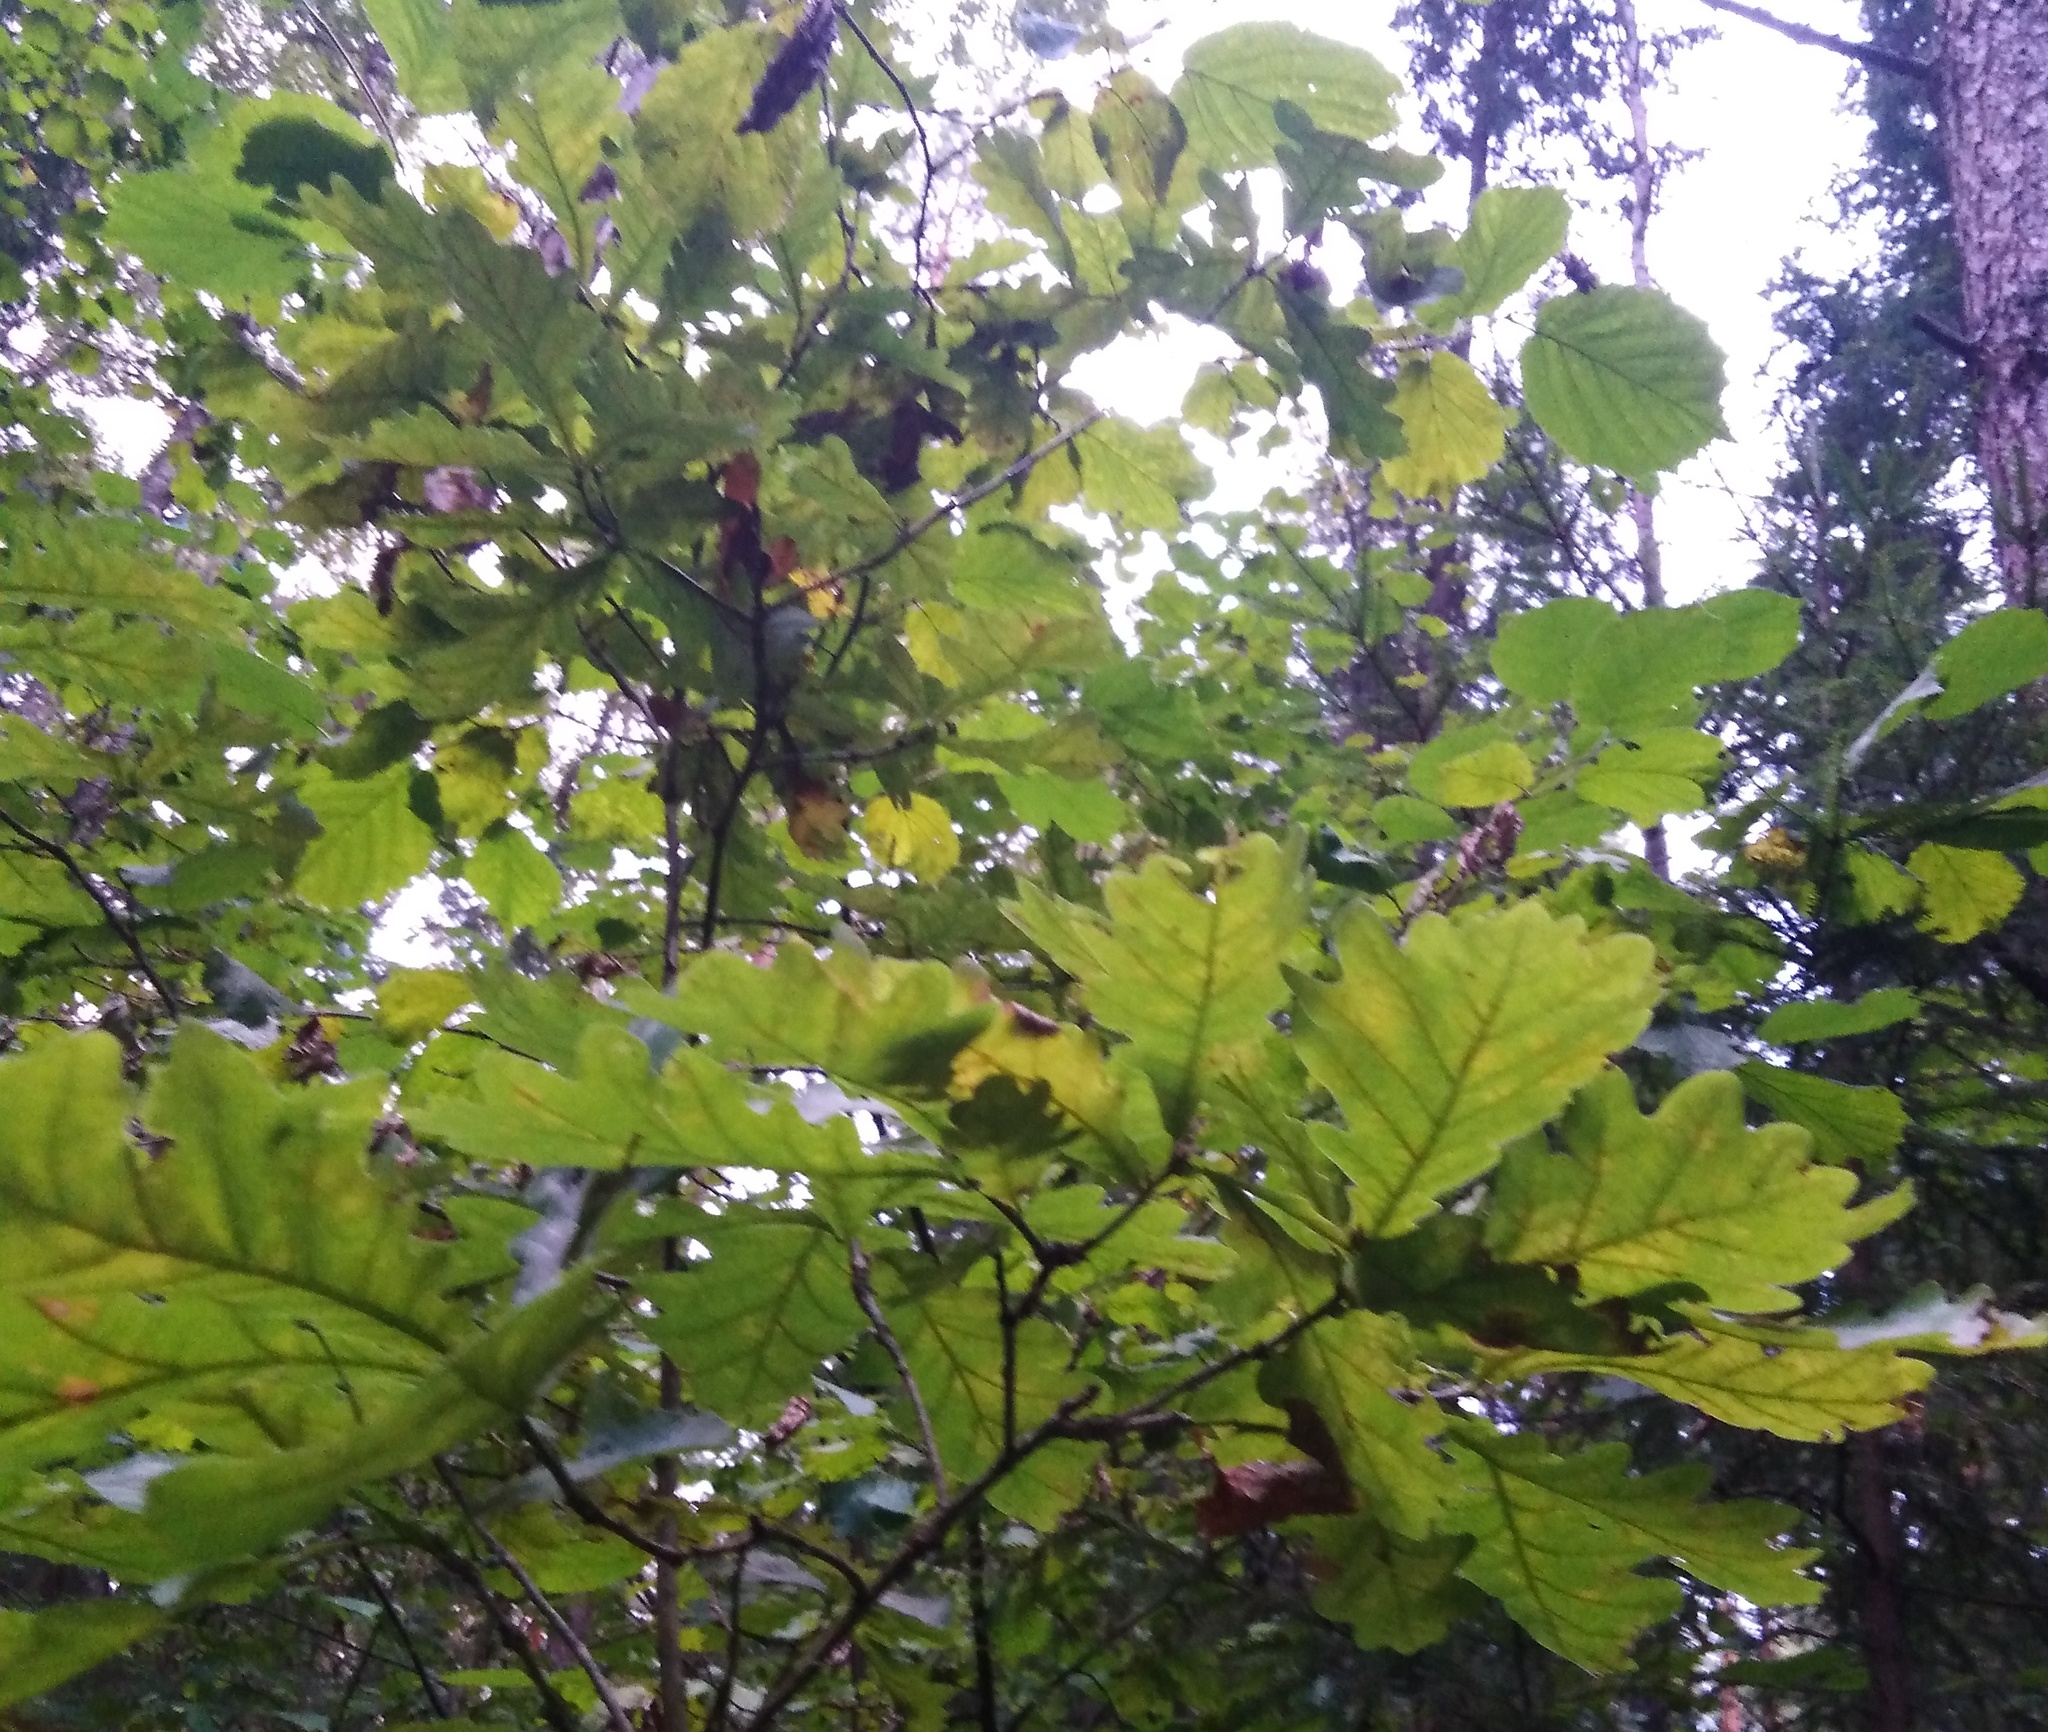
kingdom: Plantae
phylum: Tracheophyta
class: Magnoliopsida
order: Fagales
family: Fagaceae
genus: Quercus
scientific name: Quercus robur
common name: Pedunculate oak
